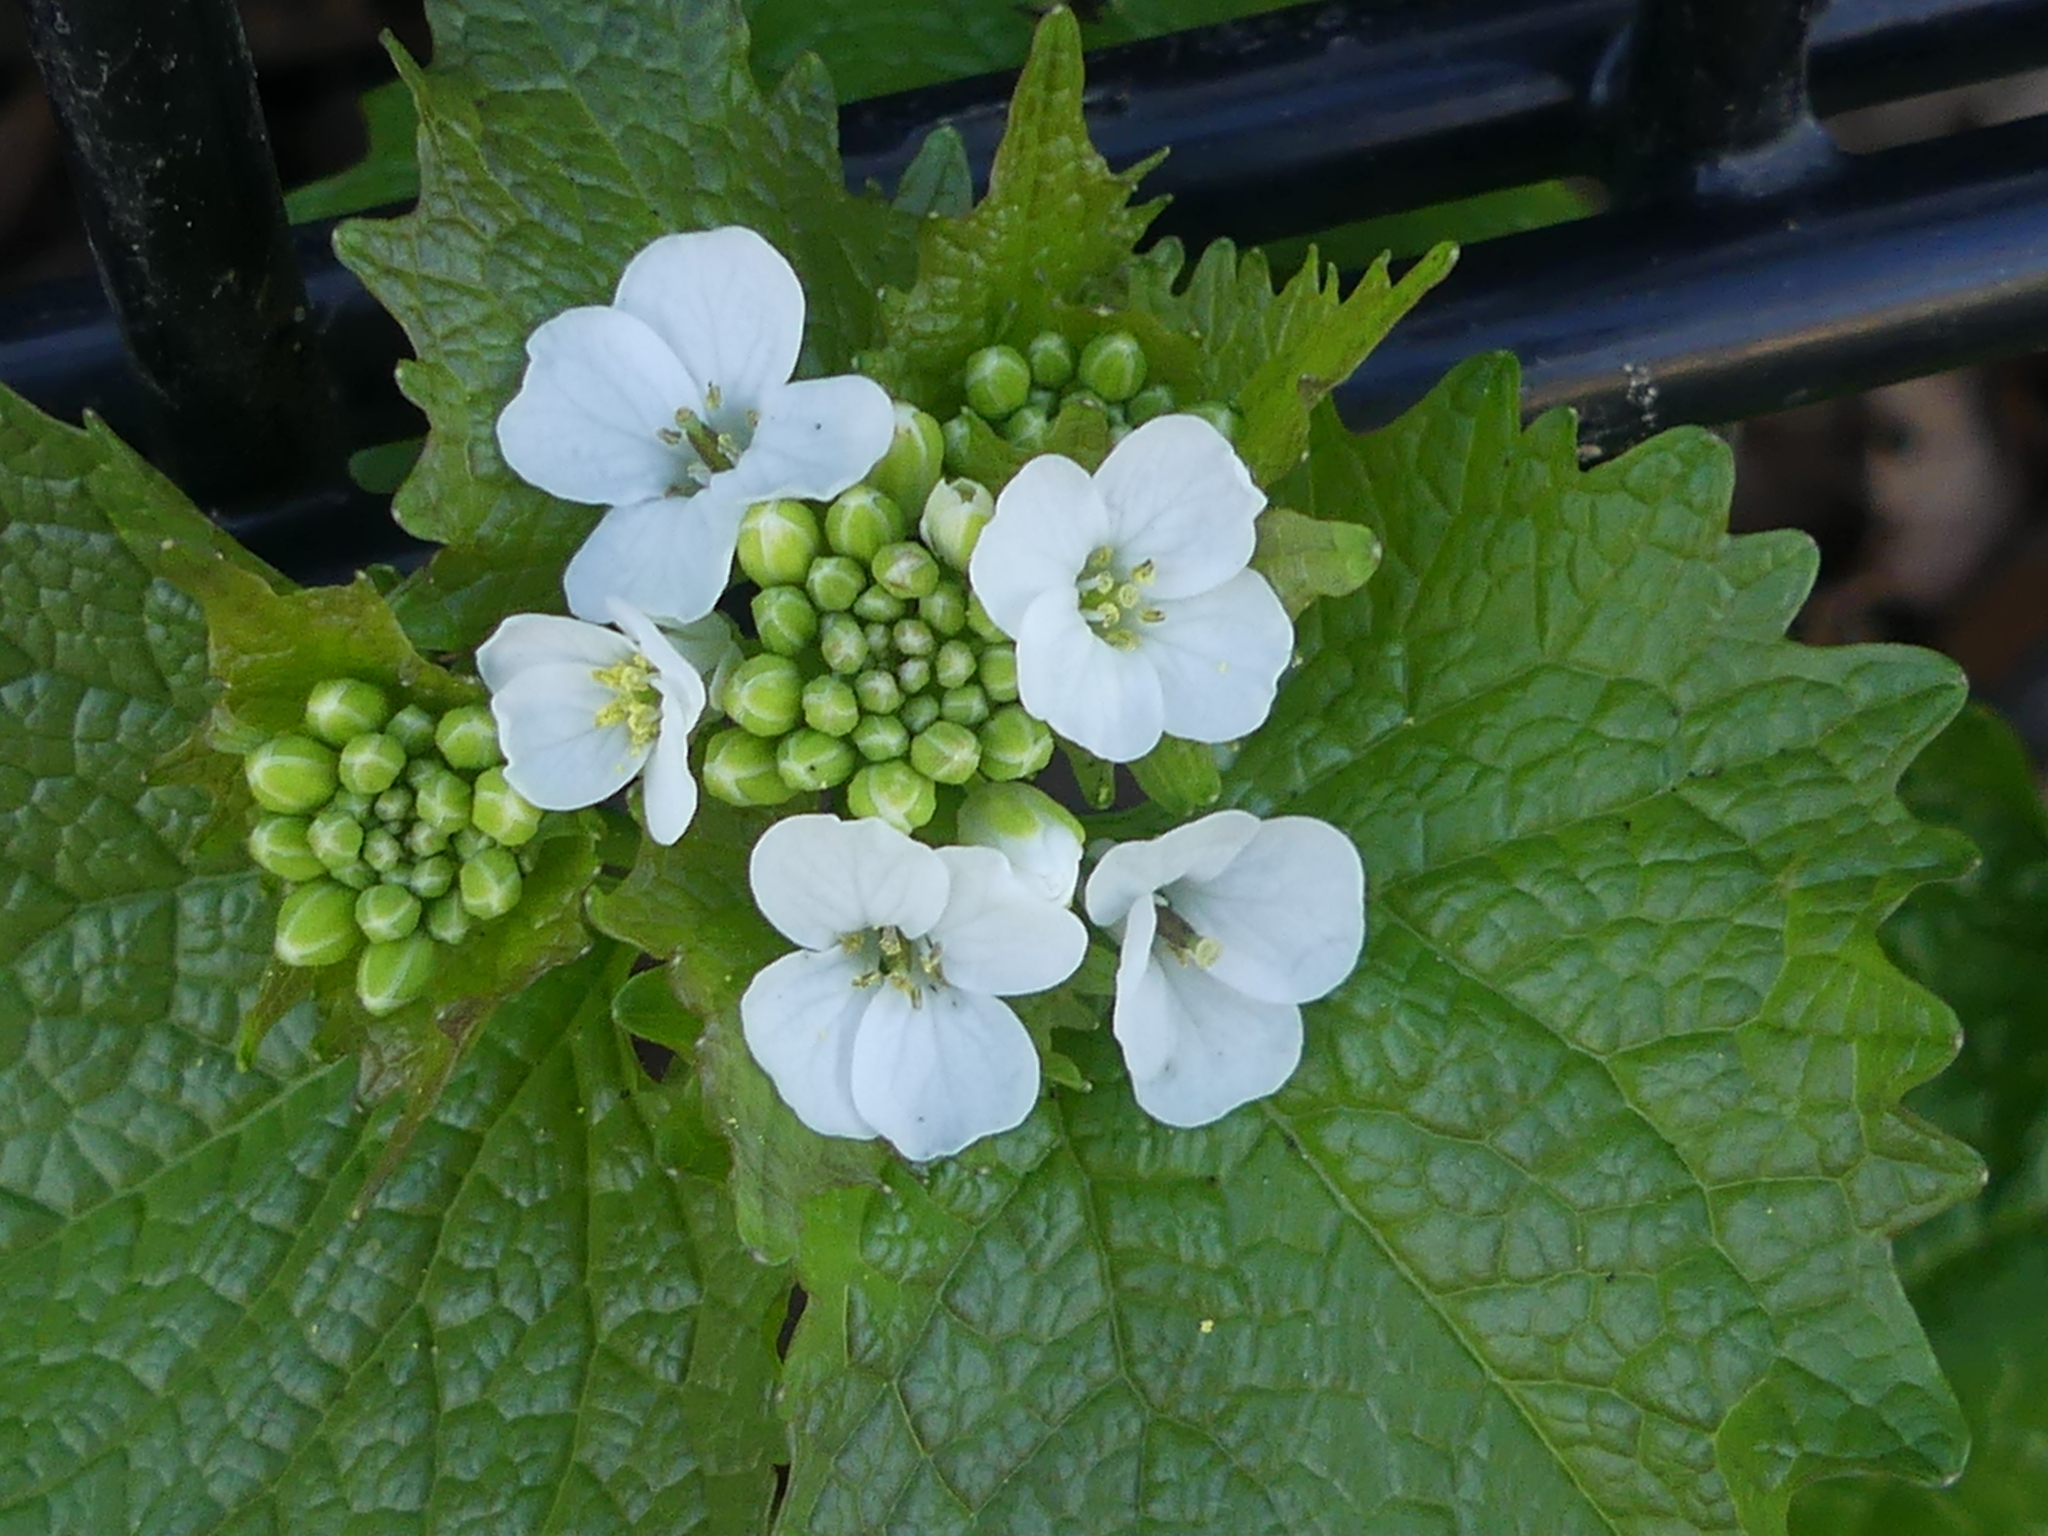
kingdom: Plantae
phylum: Tracheophyta
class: Magnoliopsida
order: Brassicales
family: Brassicaceae
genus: Alliaria
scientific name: Alliaria petiolata
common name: Garlic mustard
